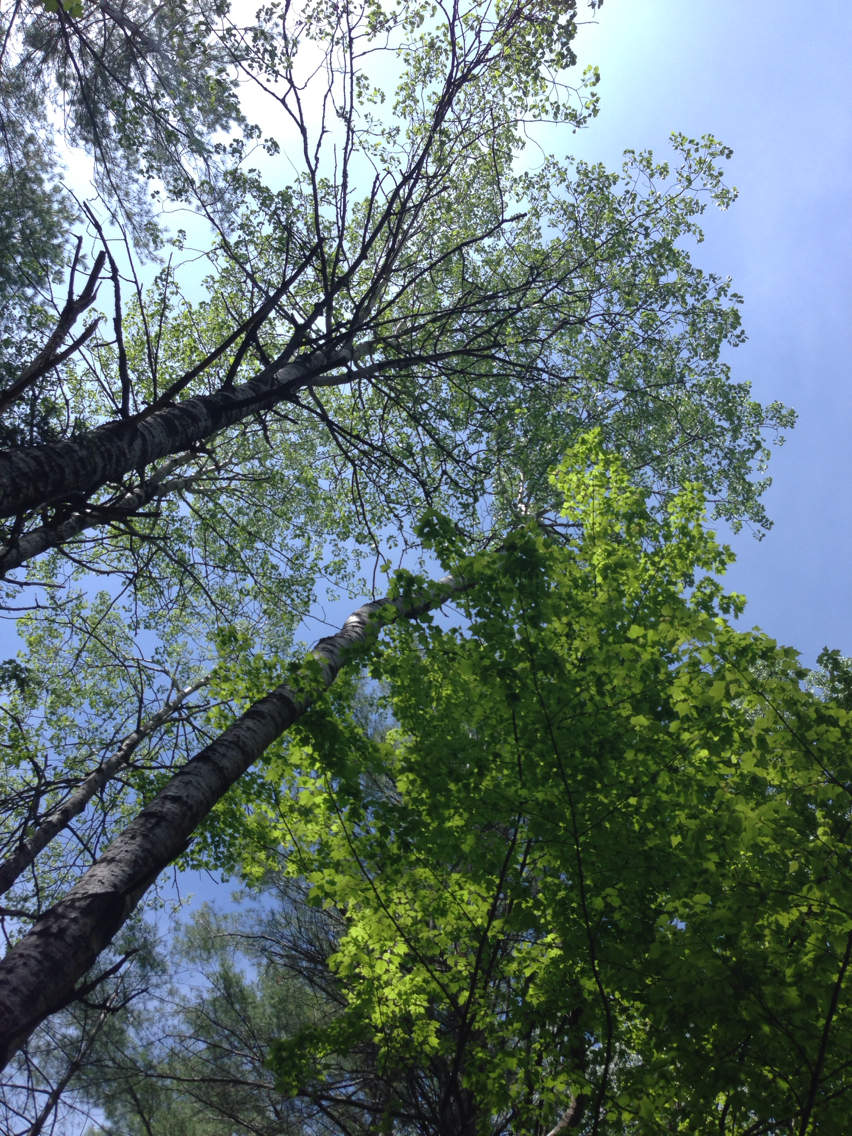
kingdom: Plantae
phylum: Tracheophyta
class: Magnoliopsida
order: Malpighiales
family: Salicaceae
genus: Populus
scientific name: Populus tremuloides
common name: Quaking aspen
